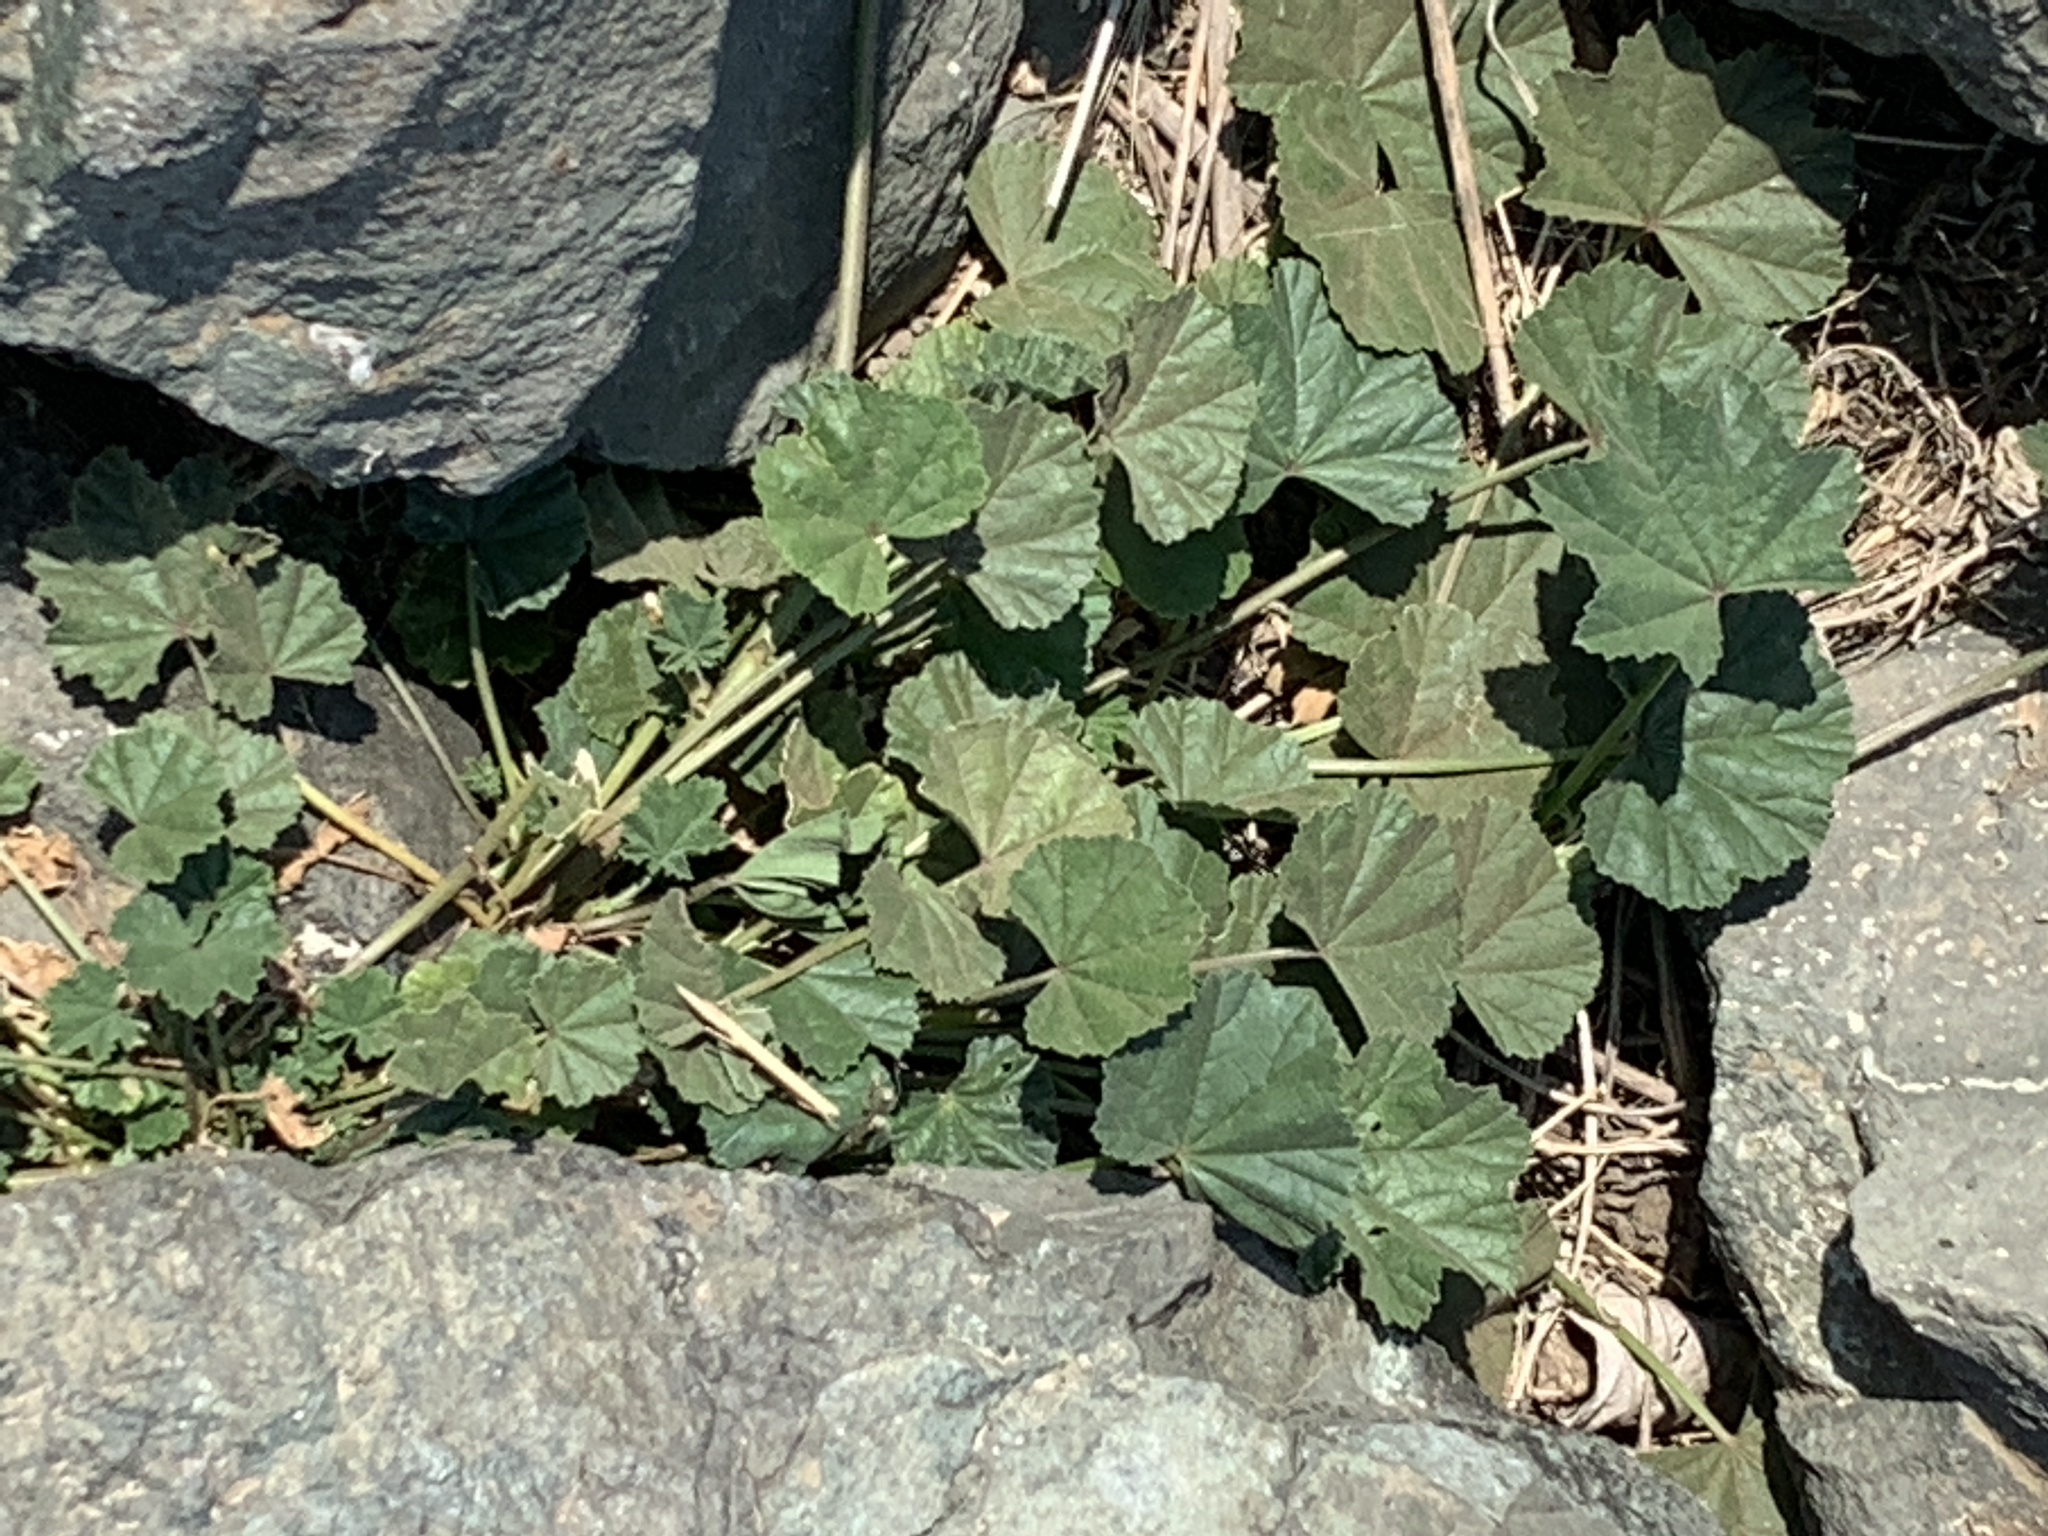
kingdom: Plantae
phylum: Tracheophyta
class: Magnoliopsida
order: Malvales
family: Malvaceae
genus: Malva
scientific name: Malva
